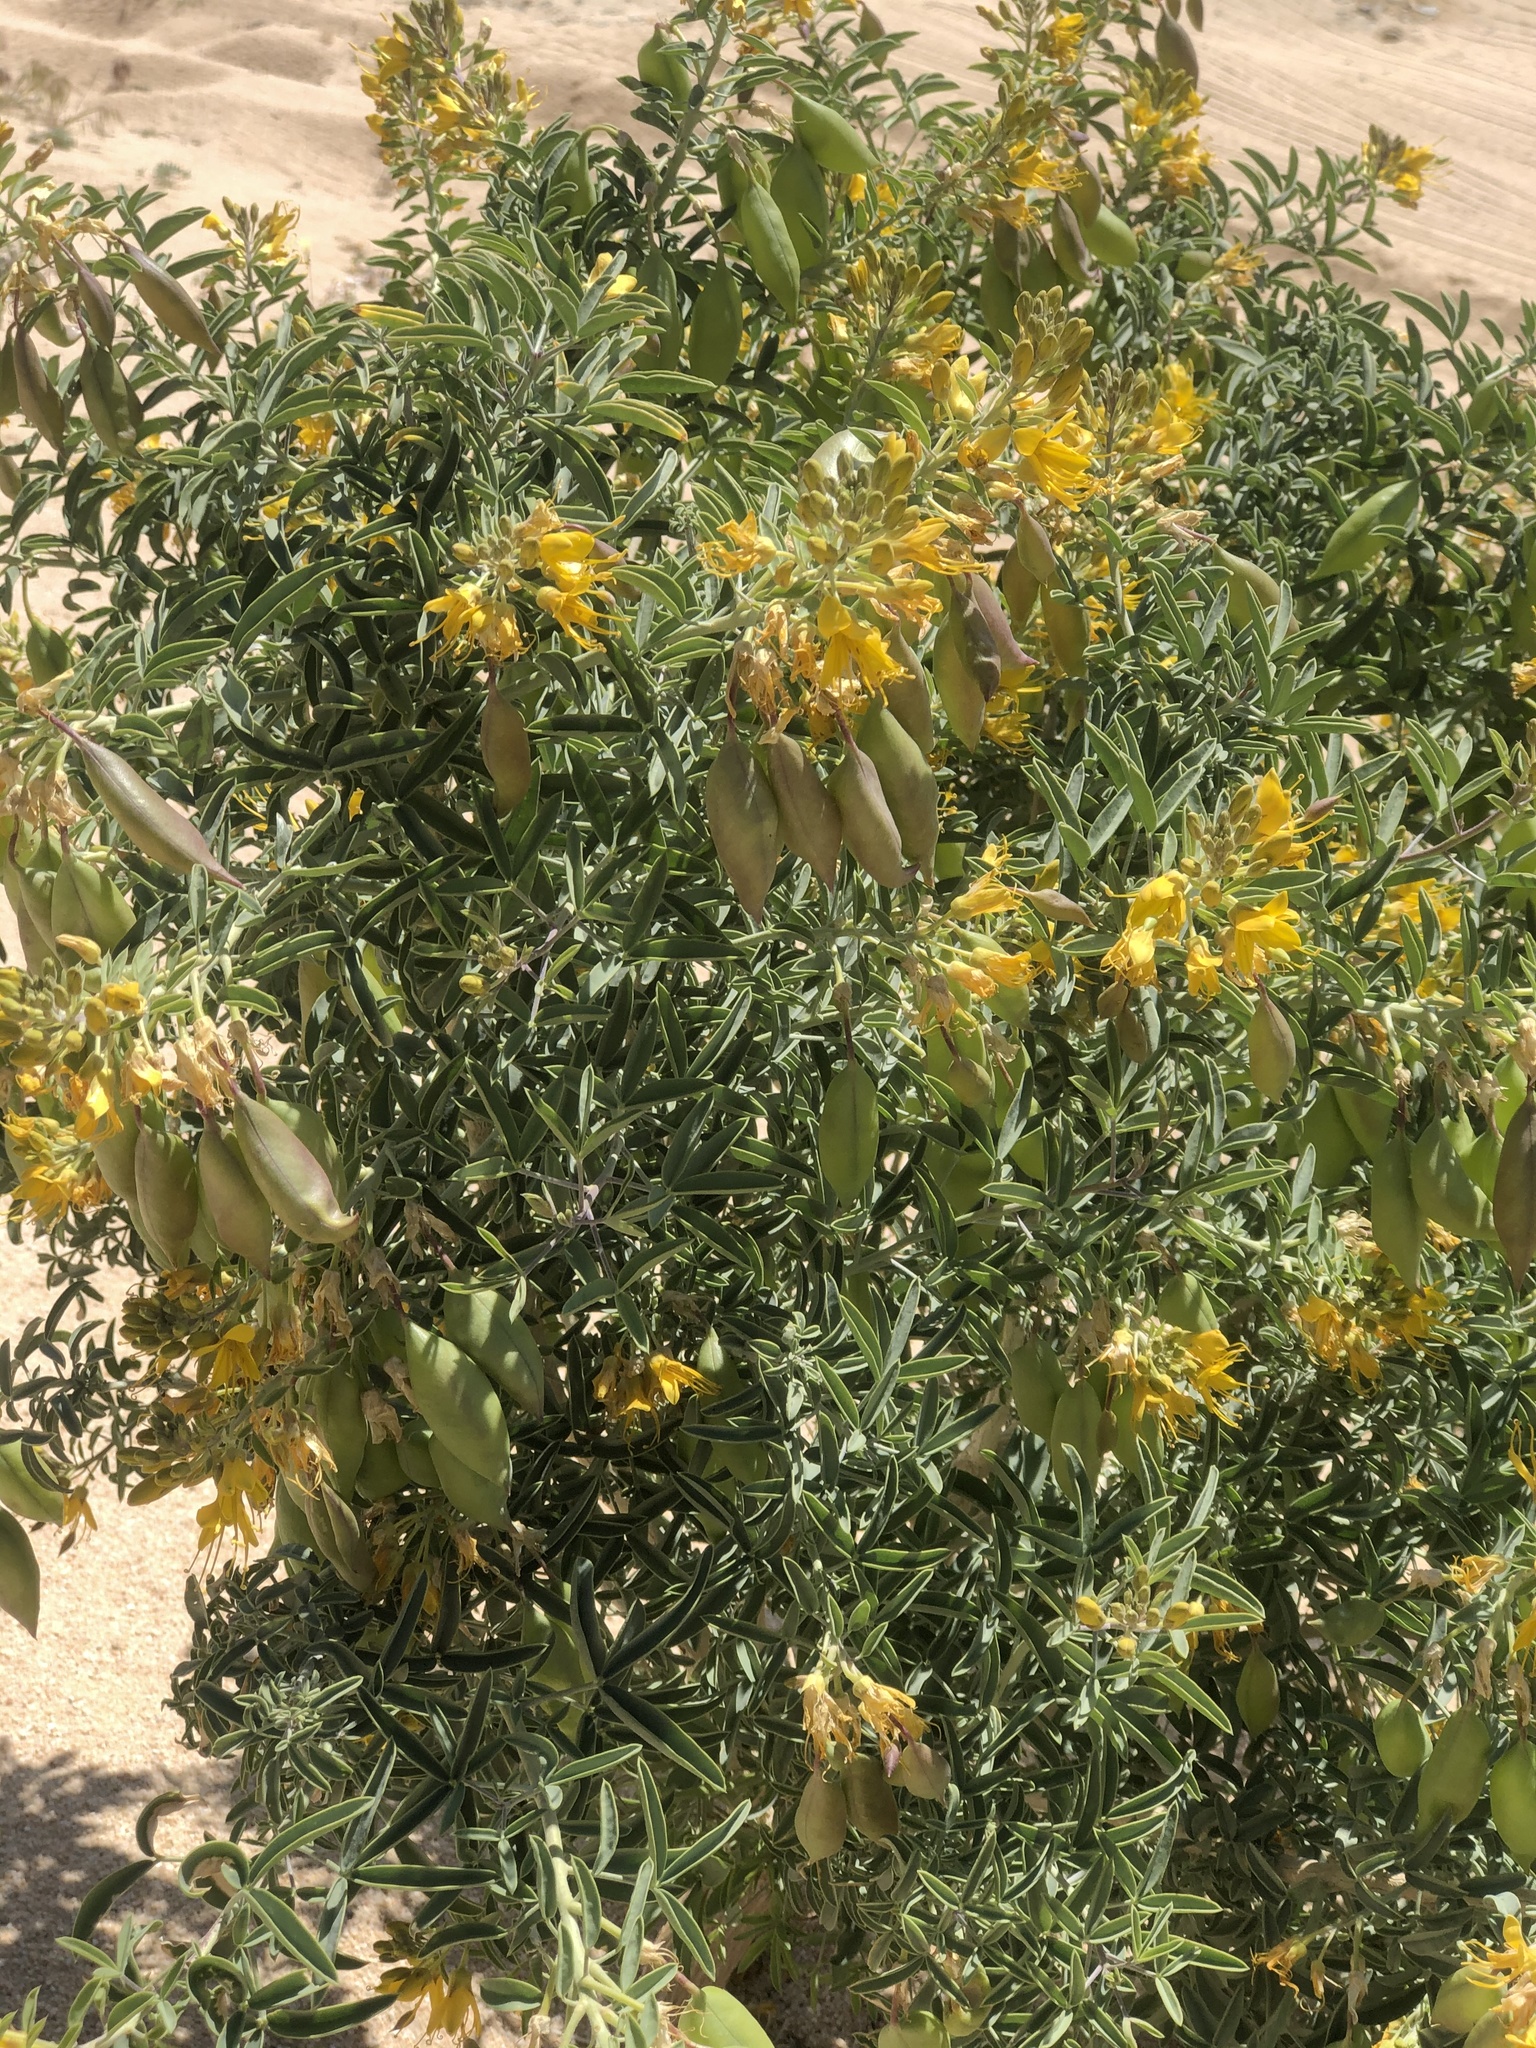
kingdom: Plantae
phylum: Tracheophyta
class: Magnoliopsida
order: Brassicales
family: Cleomaceae
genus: Cleomella
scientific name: Cleomella arborea
